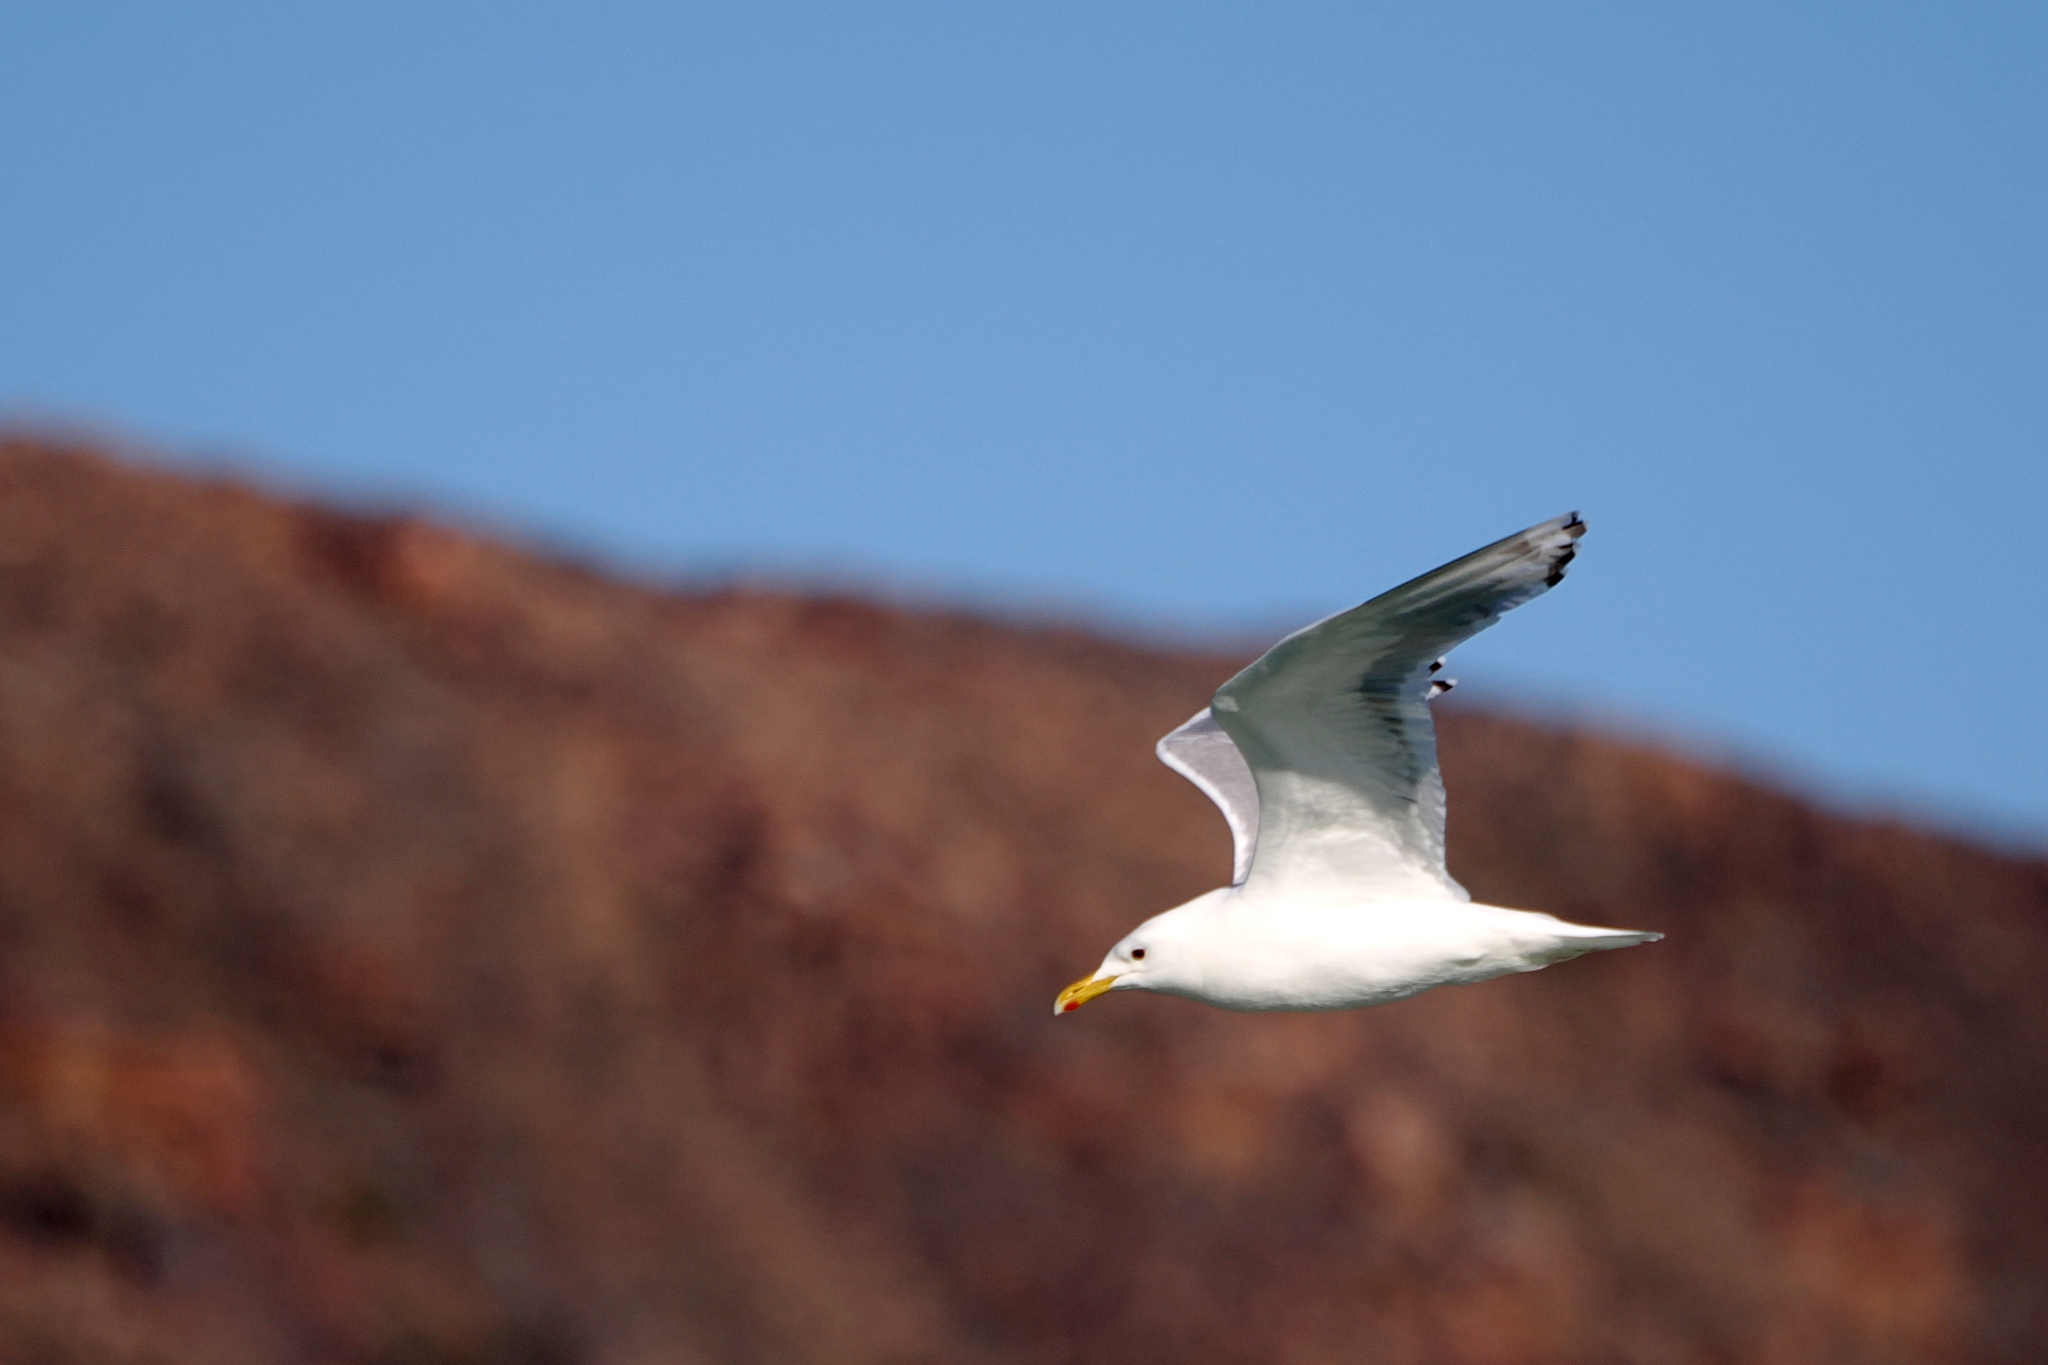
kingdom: Animalia
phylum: Chordata
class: Aves
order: Charadriiformes
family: Laridae
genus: Larus
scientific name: Larus glaucoides
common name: Iceland gull
